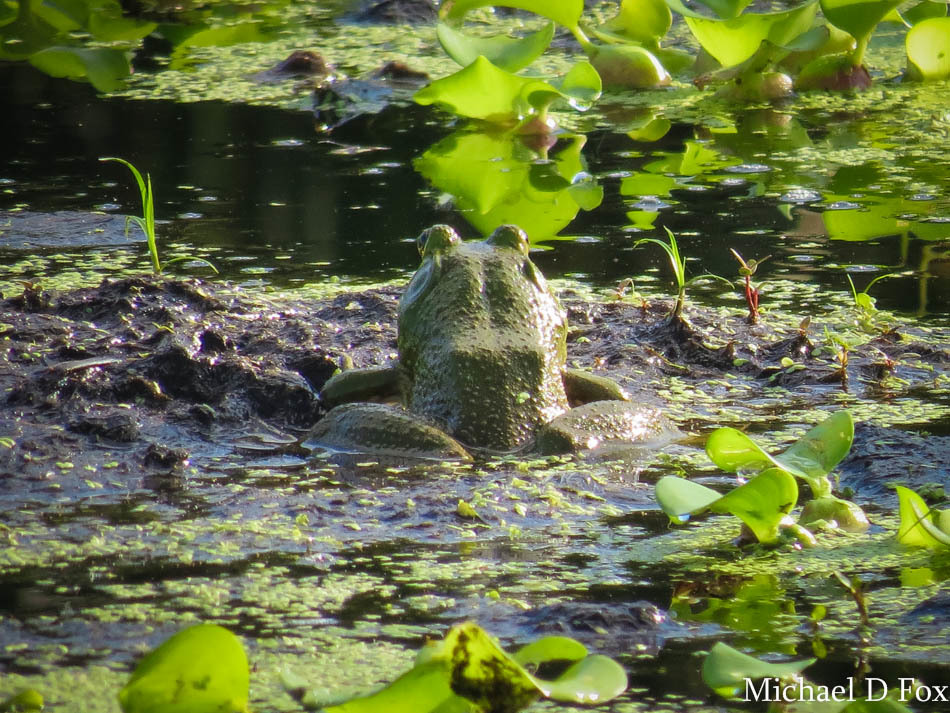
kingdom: Animalia
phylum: Chordata
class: Amphibia
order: Anura
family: Ranidae
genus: Lithobates
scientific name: Lithobates catesbeianus
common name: American bullfrog
